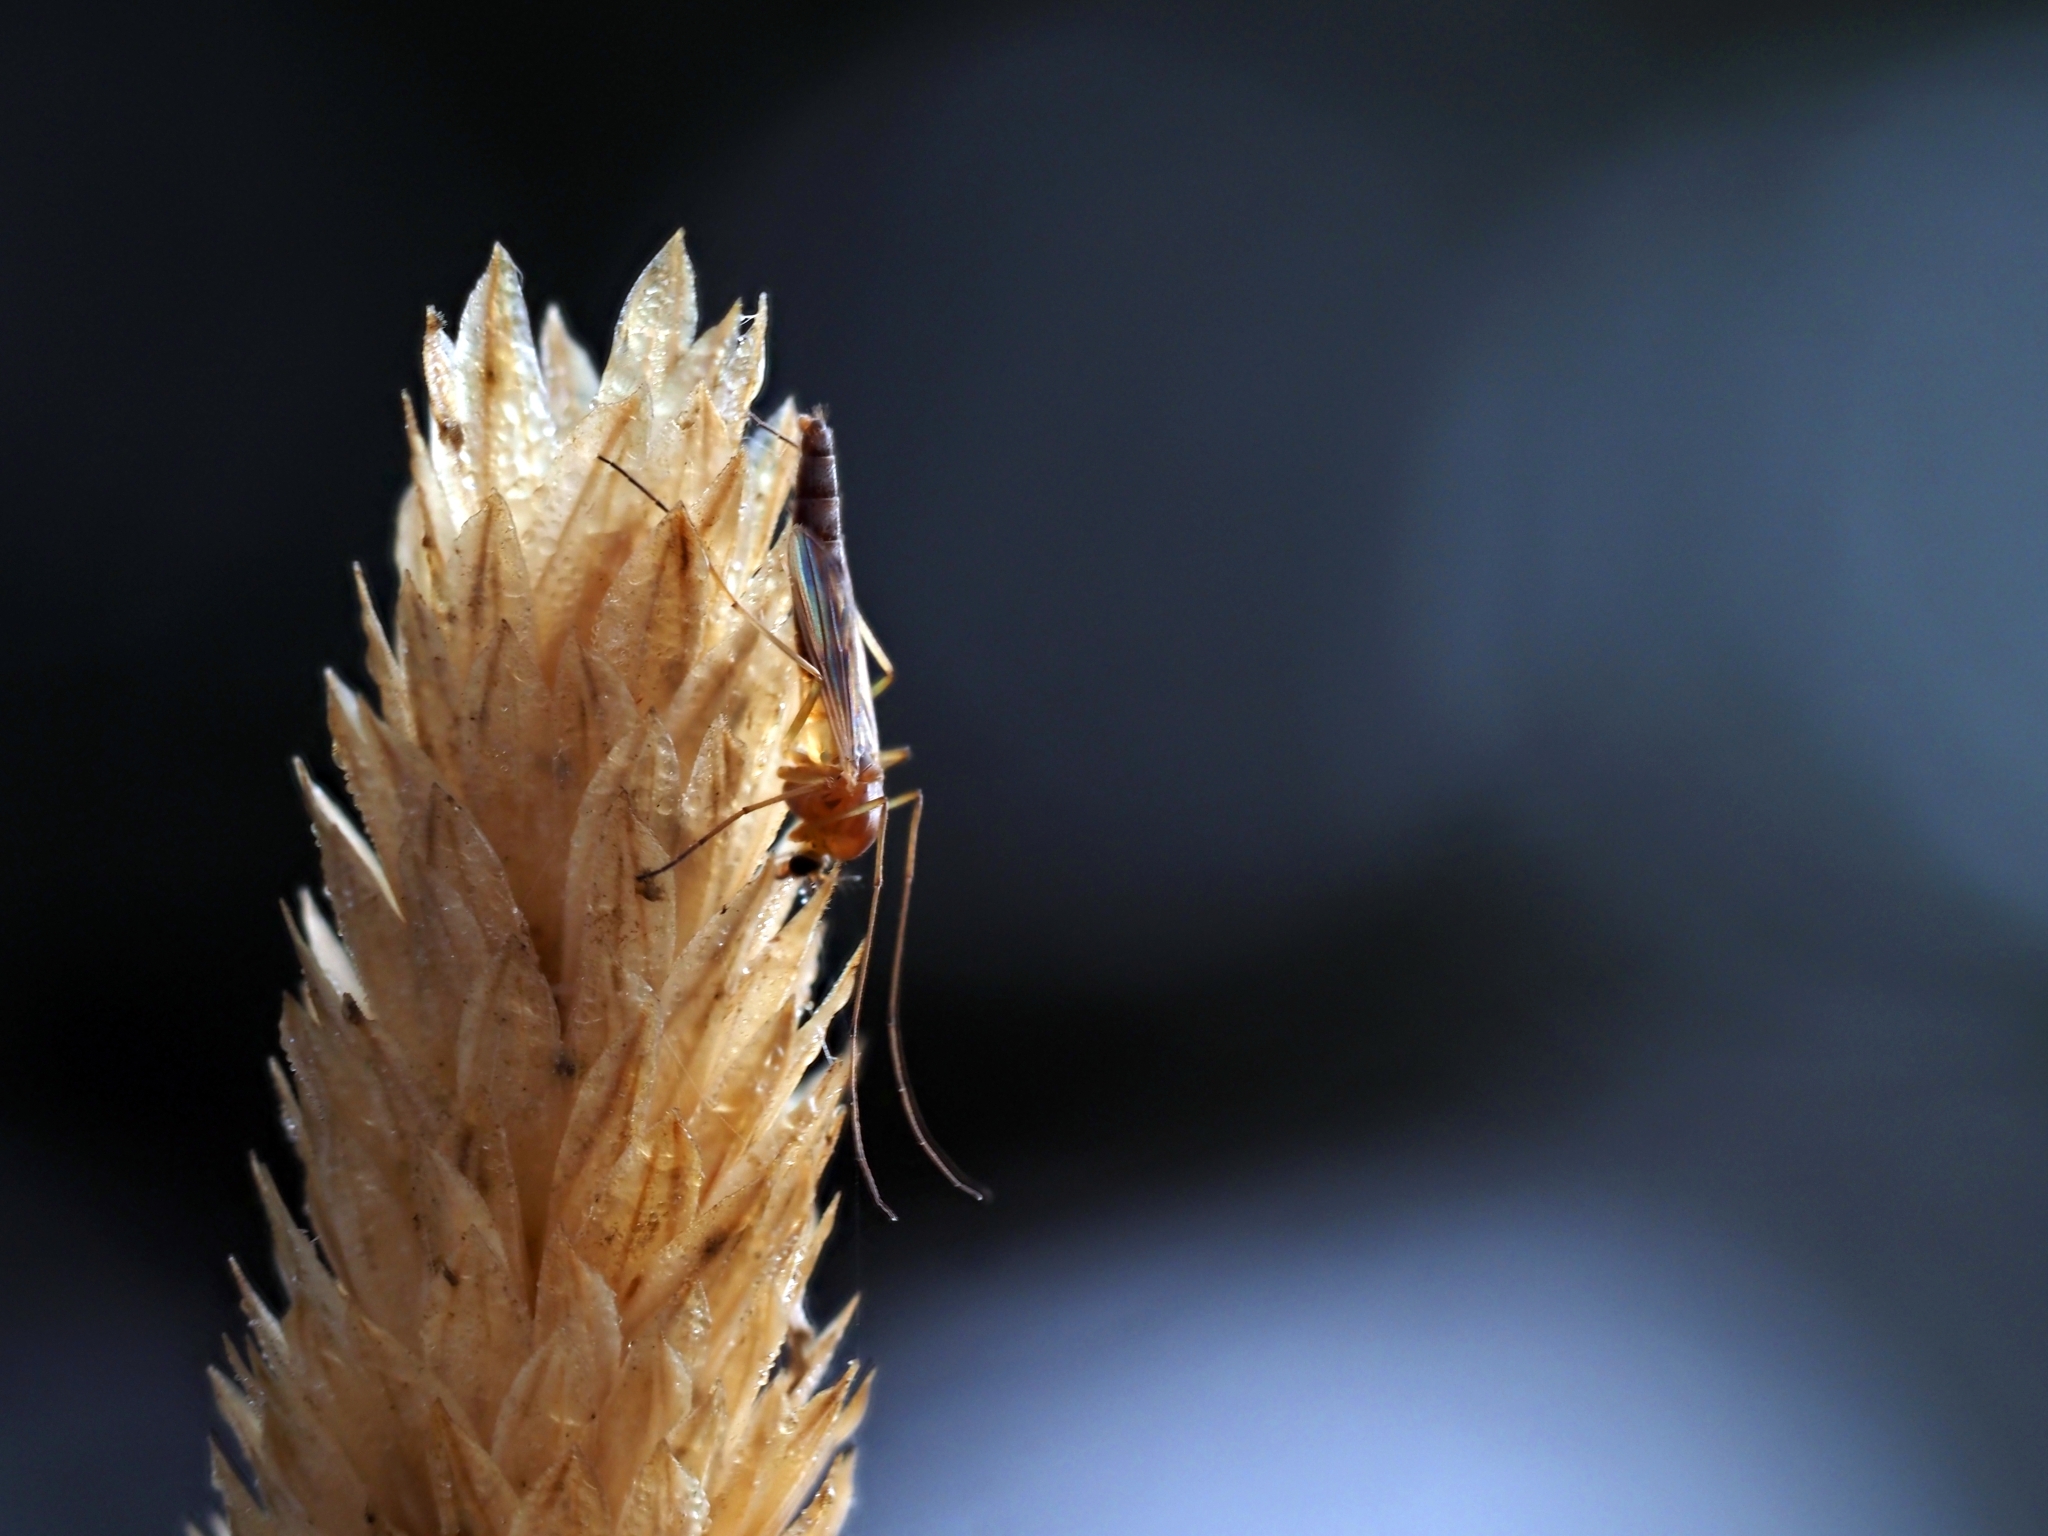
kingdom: Animalia
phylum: Arthropoda
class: Insecta
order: Diptera
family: Chironomidae
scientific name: Chironomidae
